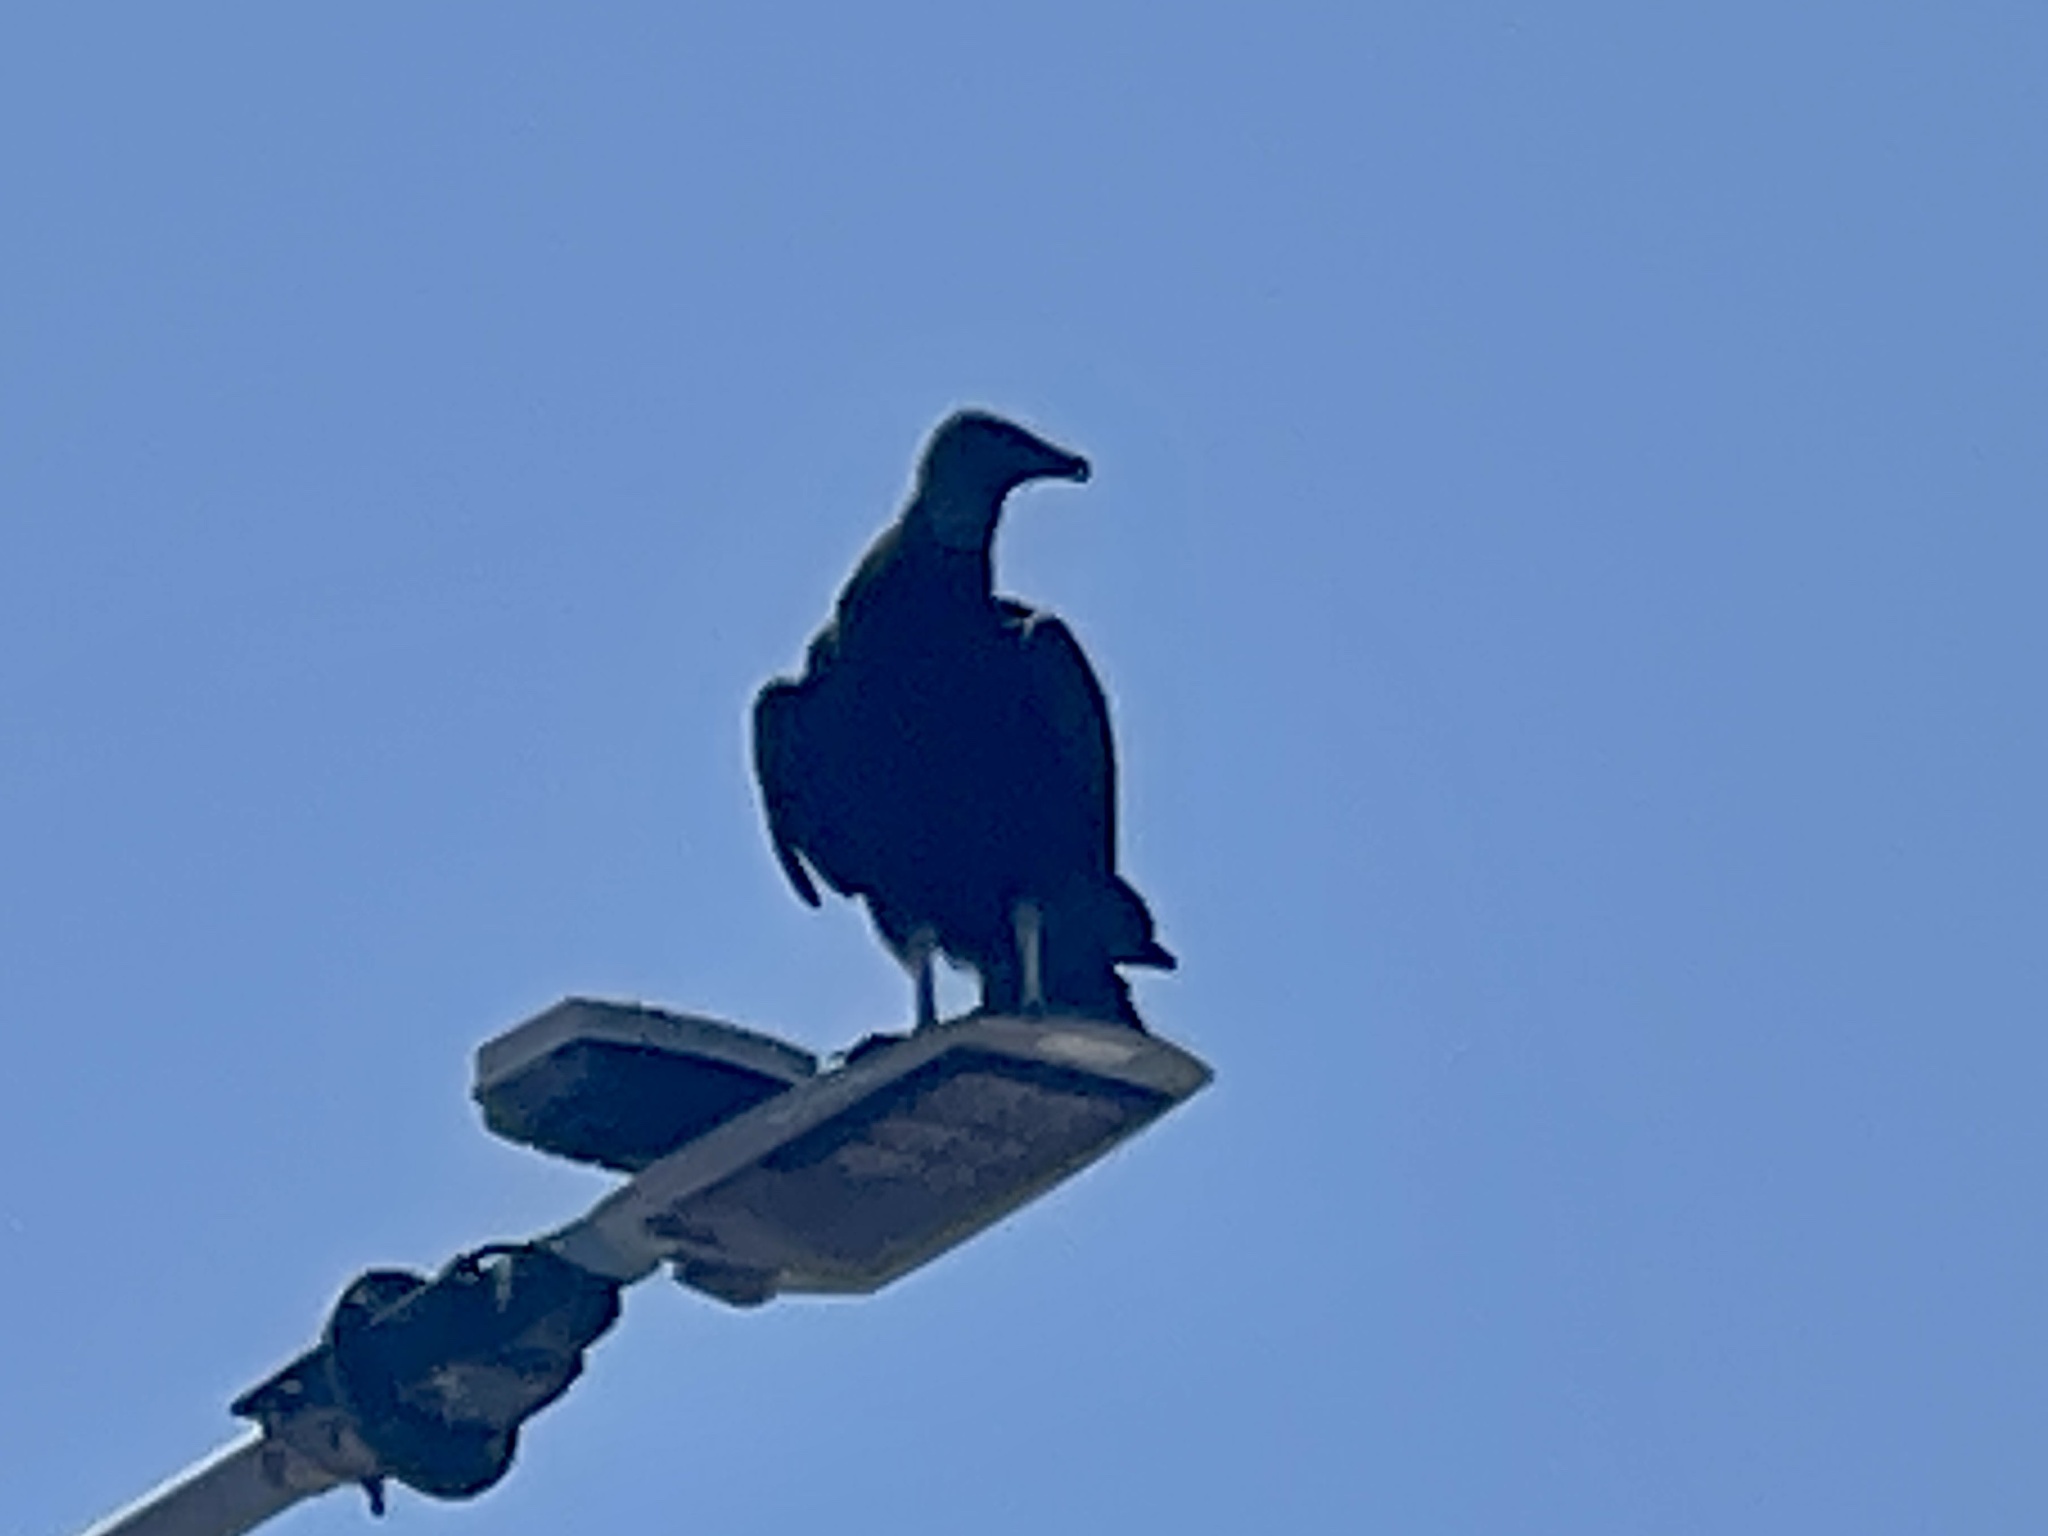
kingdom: Animalia
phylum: Chordata
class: Aves
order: Accipitriformes
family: Cathartidae
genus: Coragyps
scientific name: Coragyps atratus
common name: Black vulture
